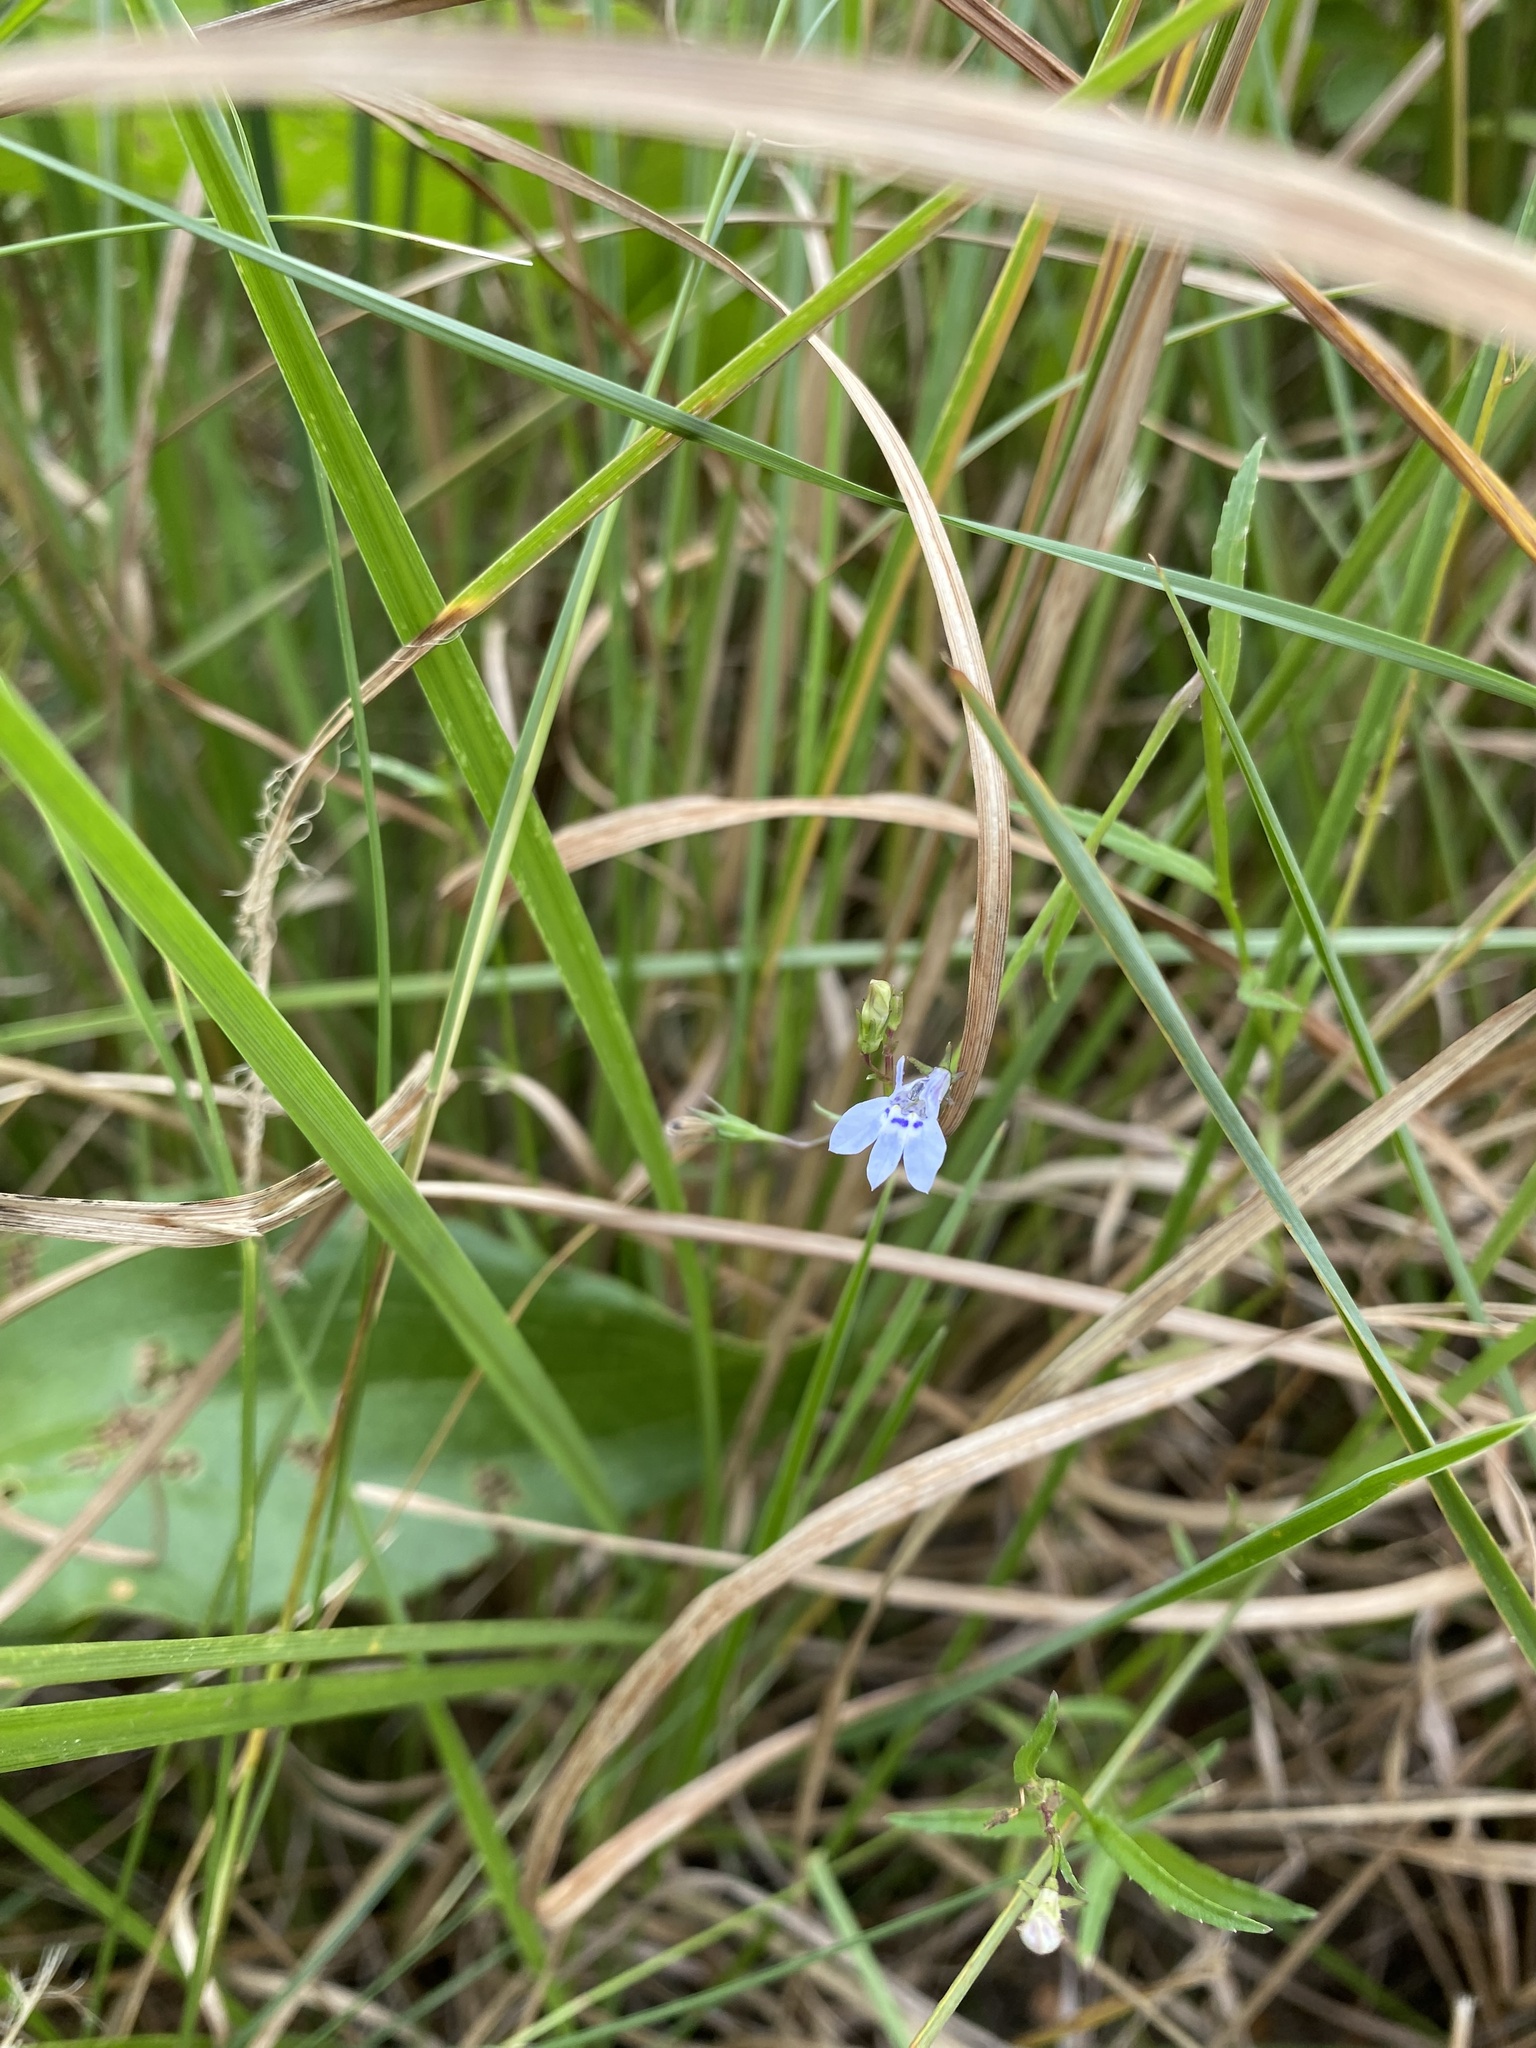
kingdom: Plantae
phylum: Tracheophyta
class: Magnoliopsida
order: Asterales
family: Campanulaceae
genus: Lobelia
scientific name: Lobelia flaccida
